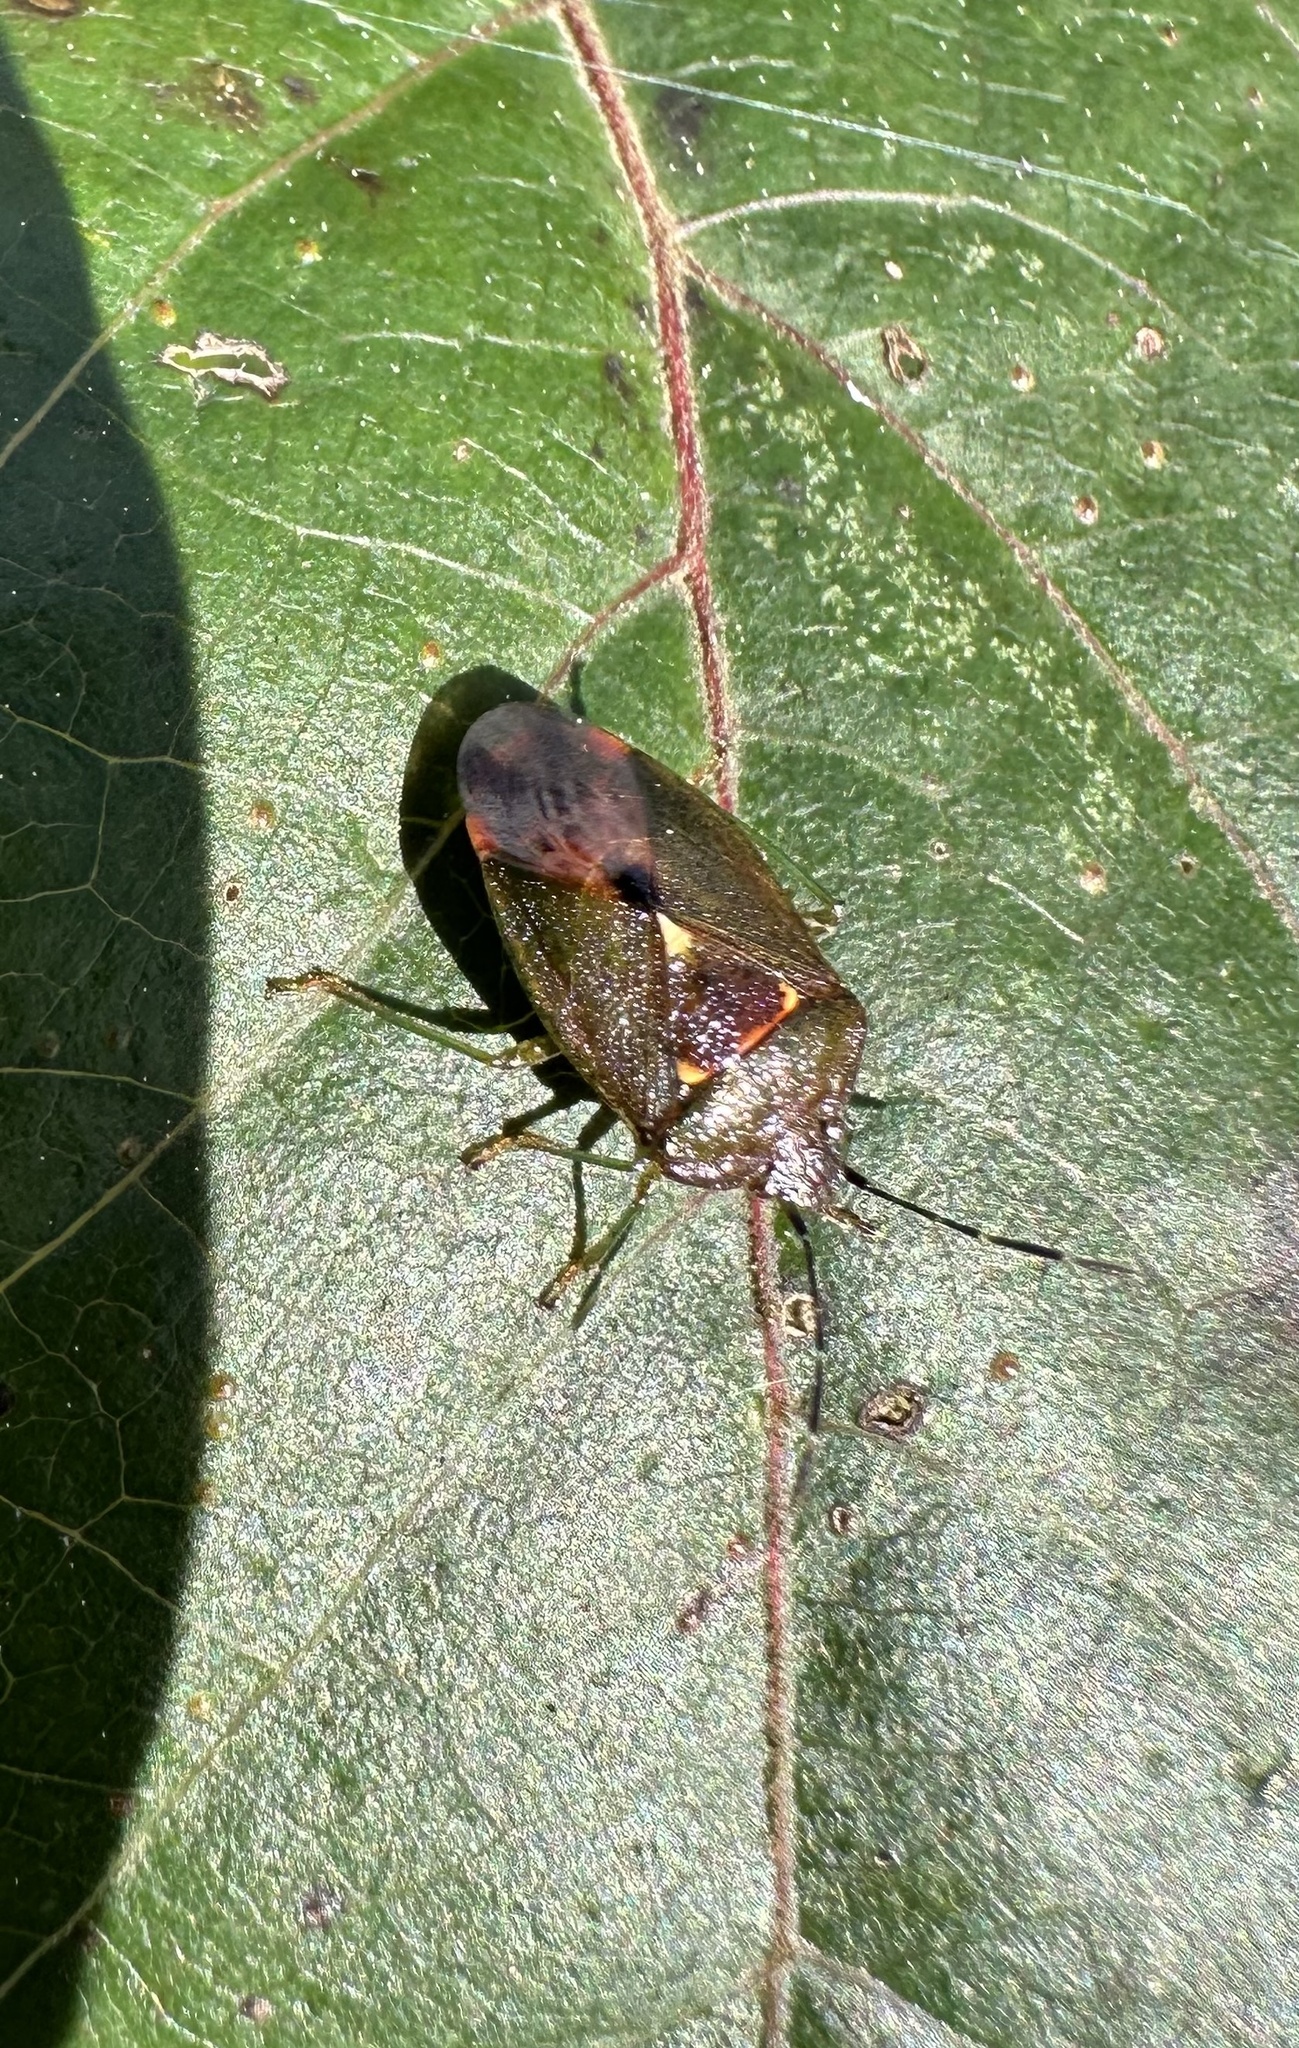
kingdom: Animalia
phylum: Arthropoda
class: Insecta
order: Hemiptera
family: Acanthosomatidae
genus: Ditomotarsus
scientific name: Ditomotarsus punctiventris
